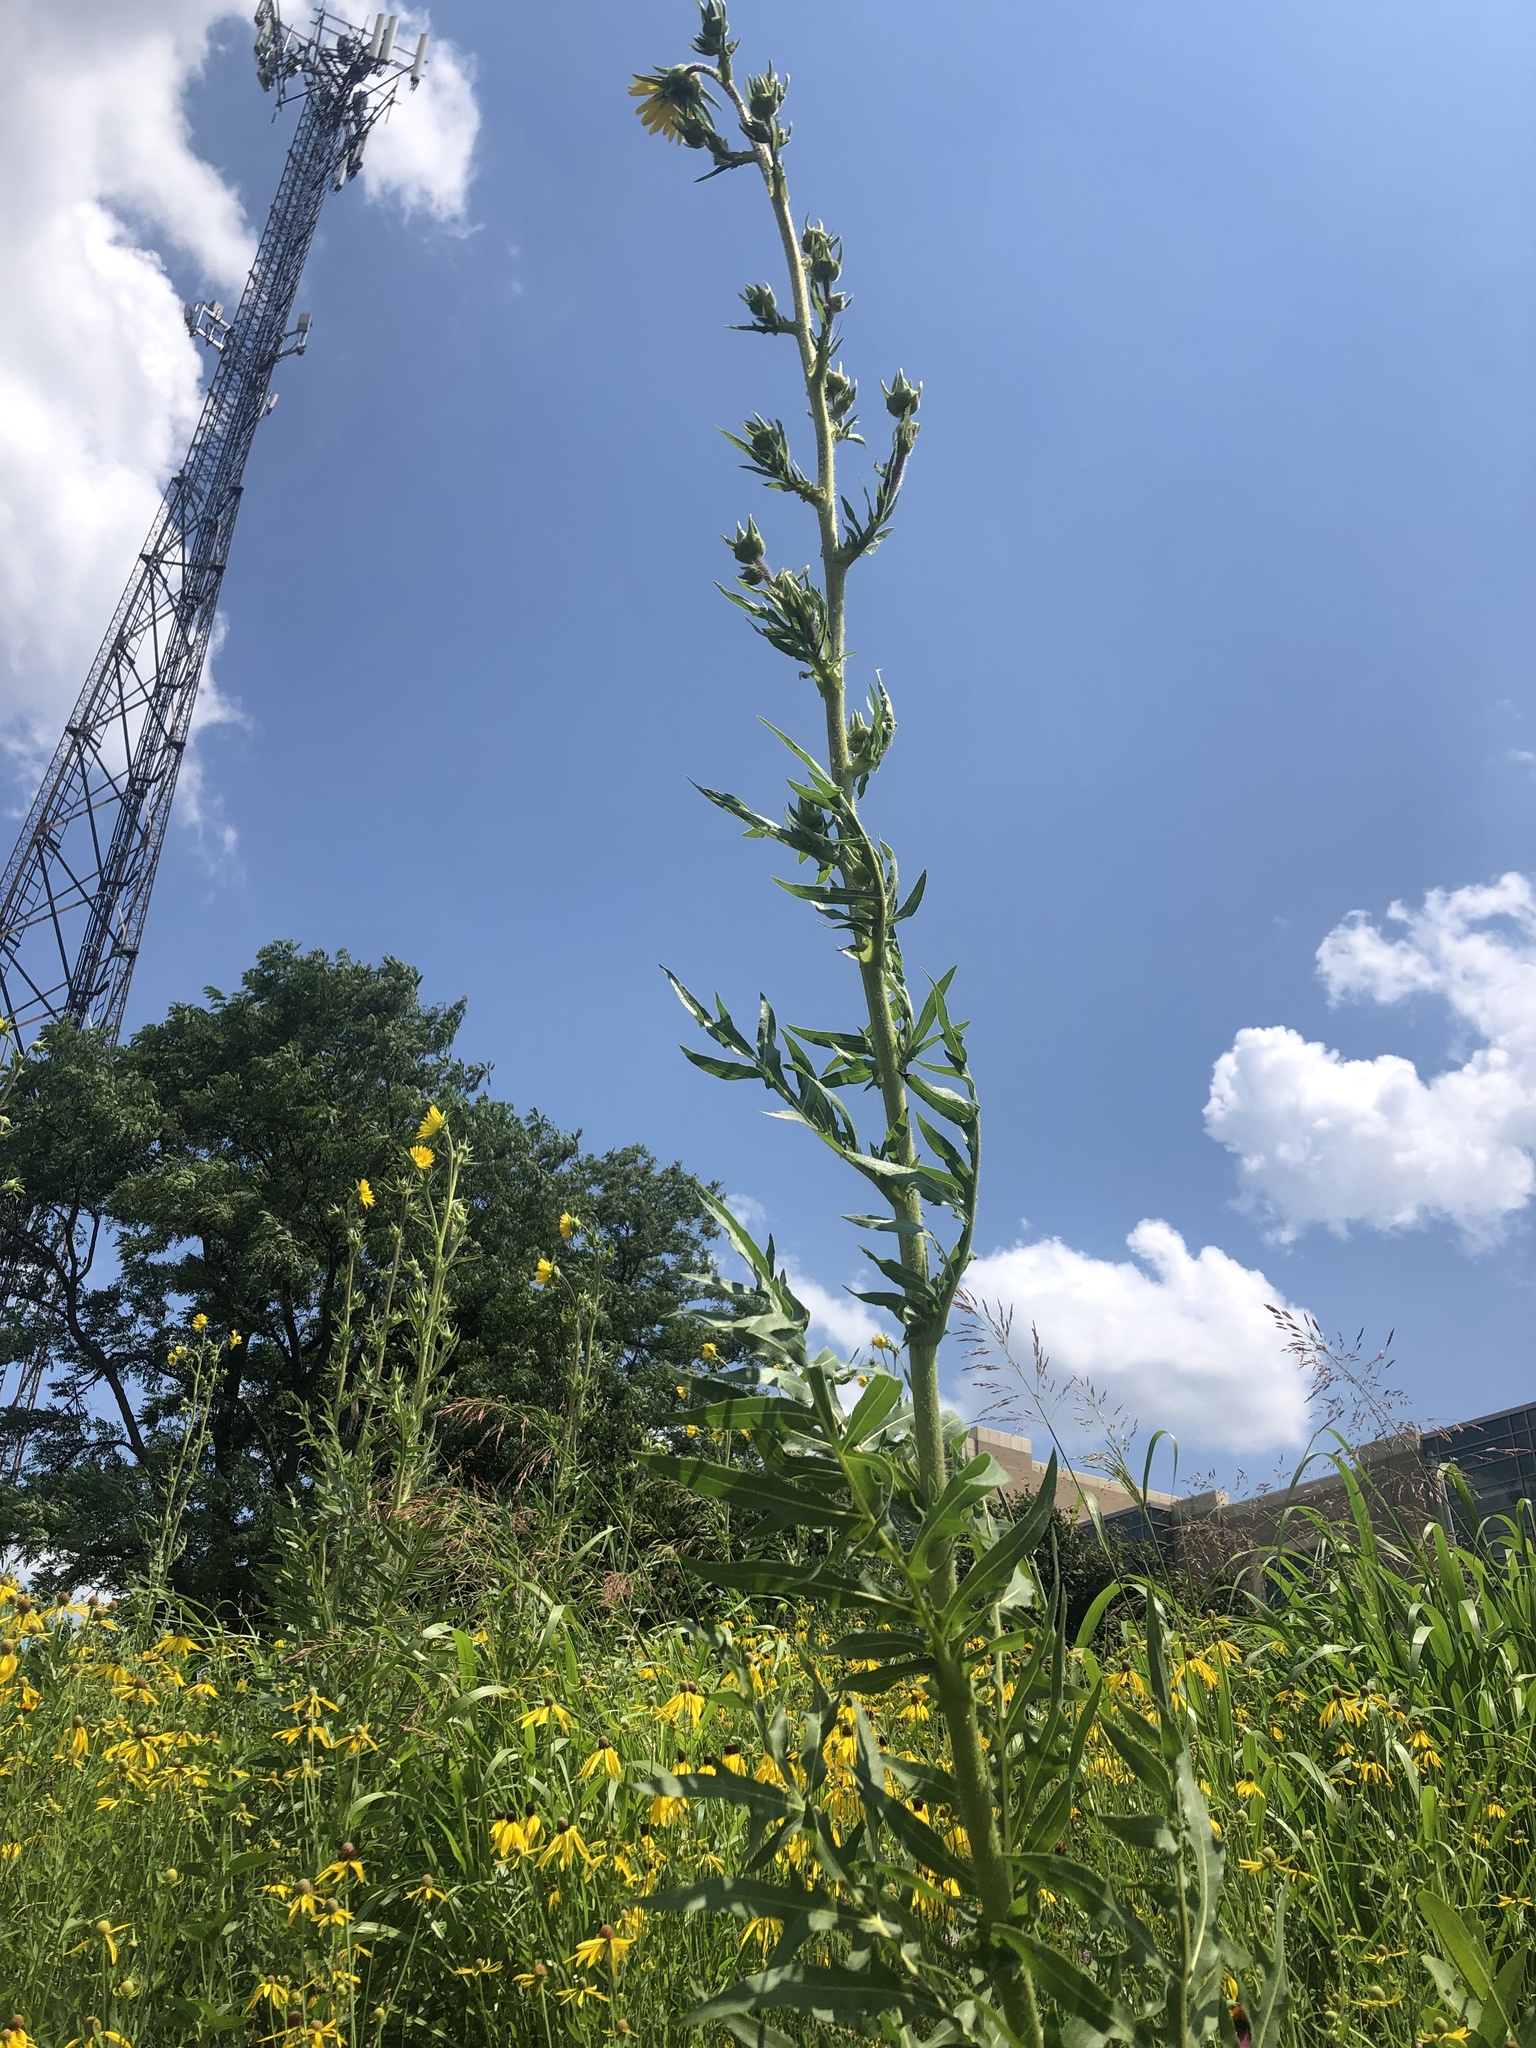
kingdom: Plantae
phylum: Tracheophyta
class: Magnoliopsida
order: Asterales
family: Asteraceae
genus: Silphium
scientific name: Silphium laciniatum
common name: Polarplant
